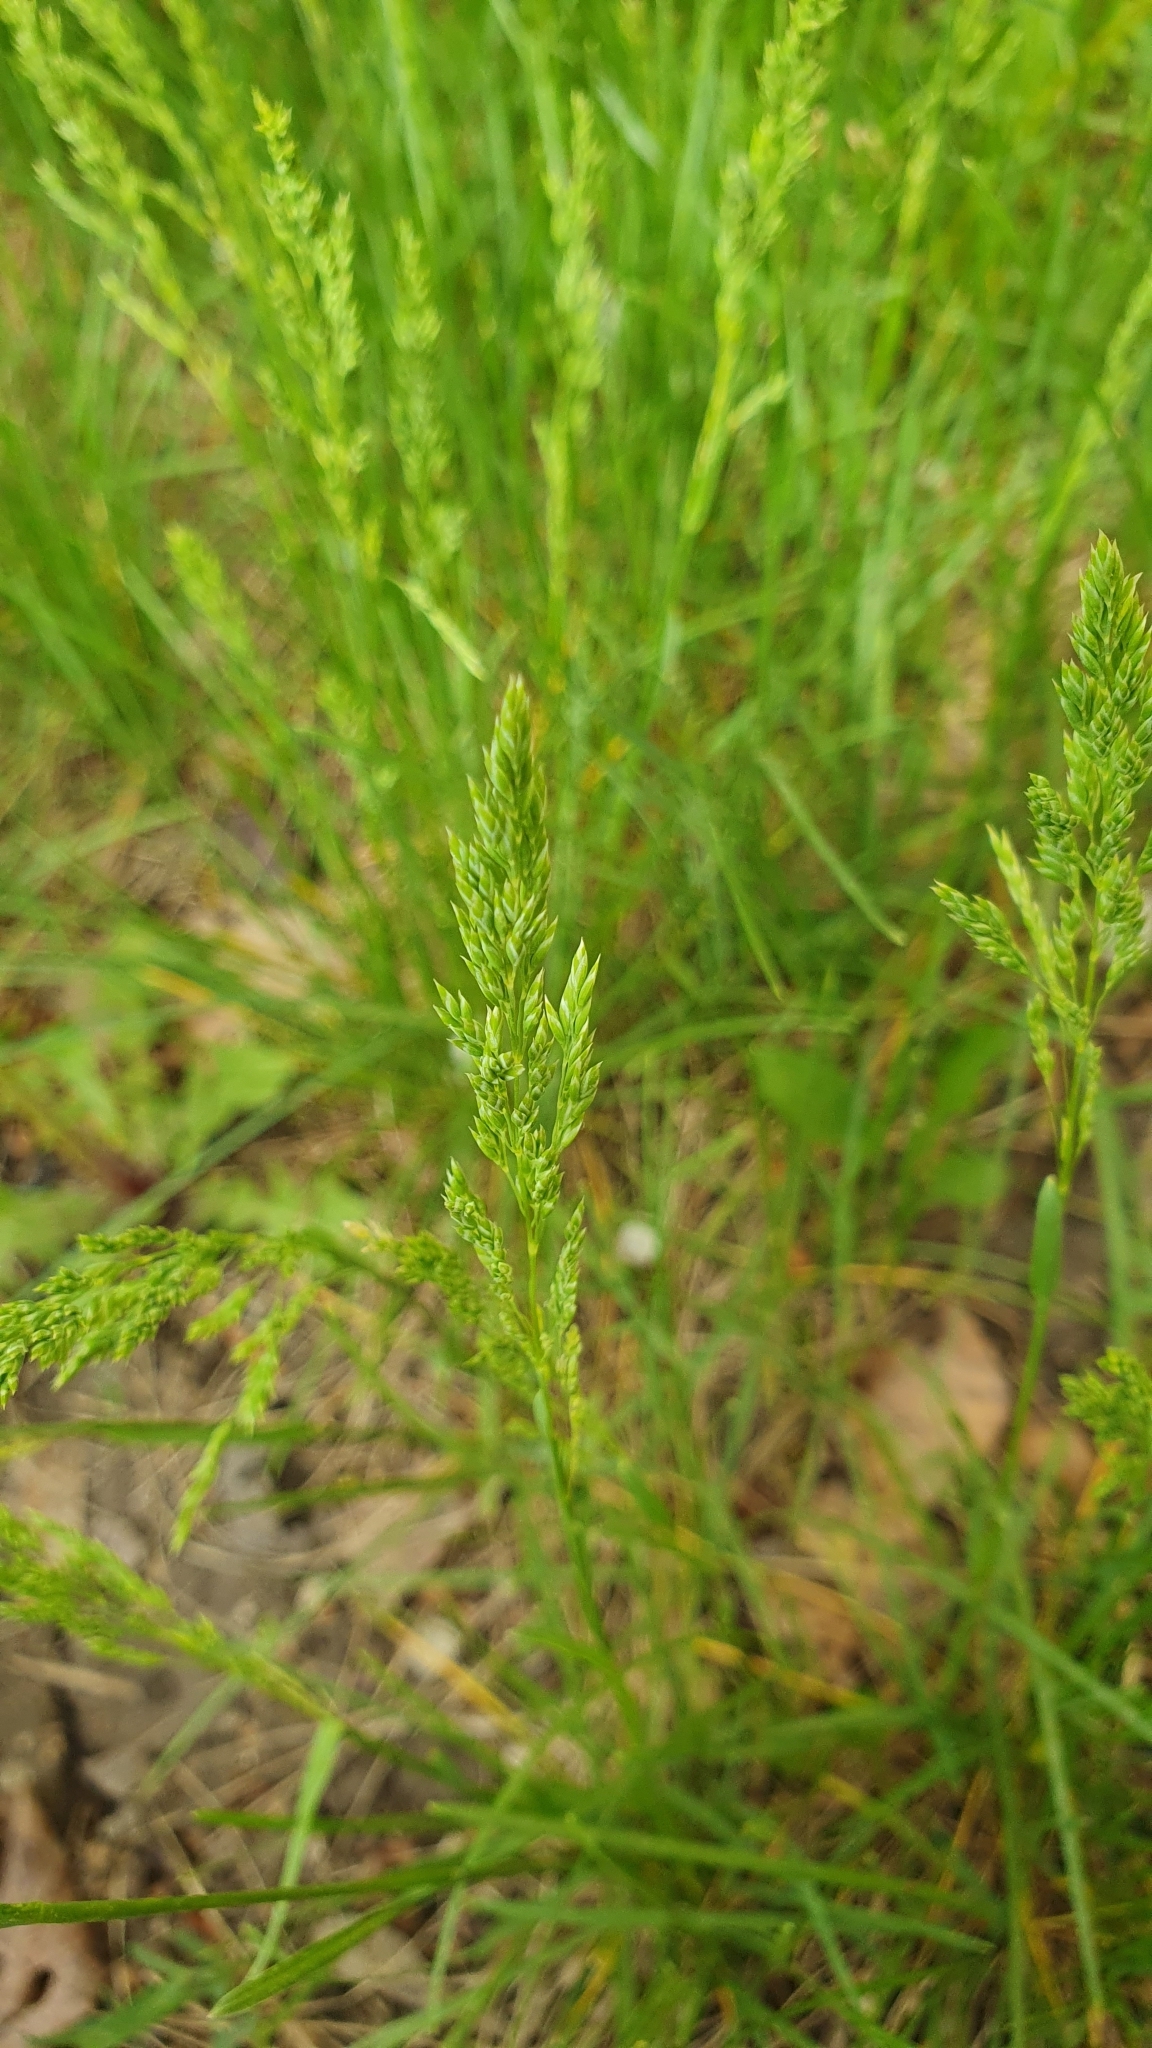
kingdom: Plantae
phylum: Tracheophyta
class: Liliopsida
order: Poales
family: Poaceae
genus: Poa
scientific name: Poa pratensis
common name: Kentucky bluegrass
